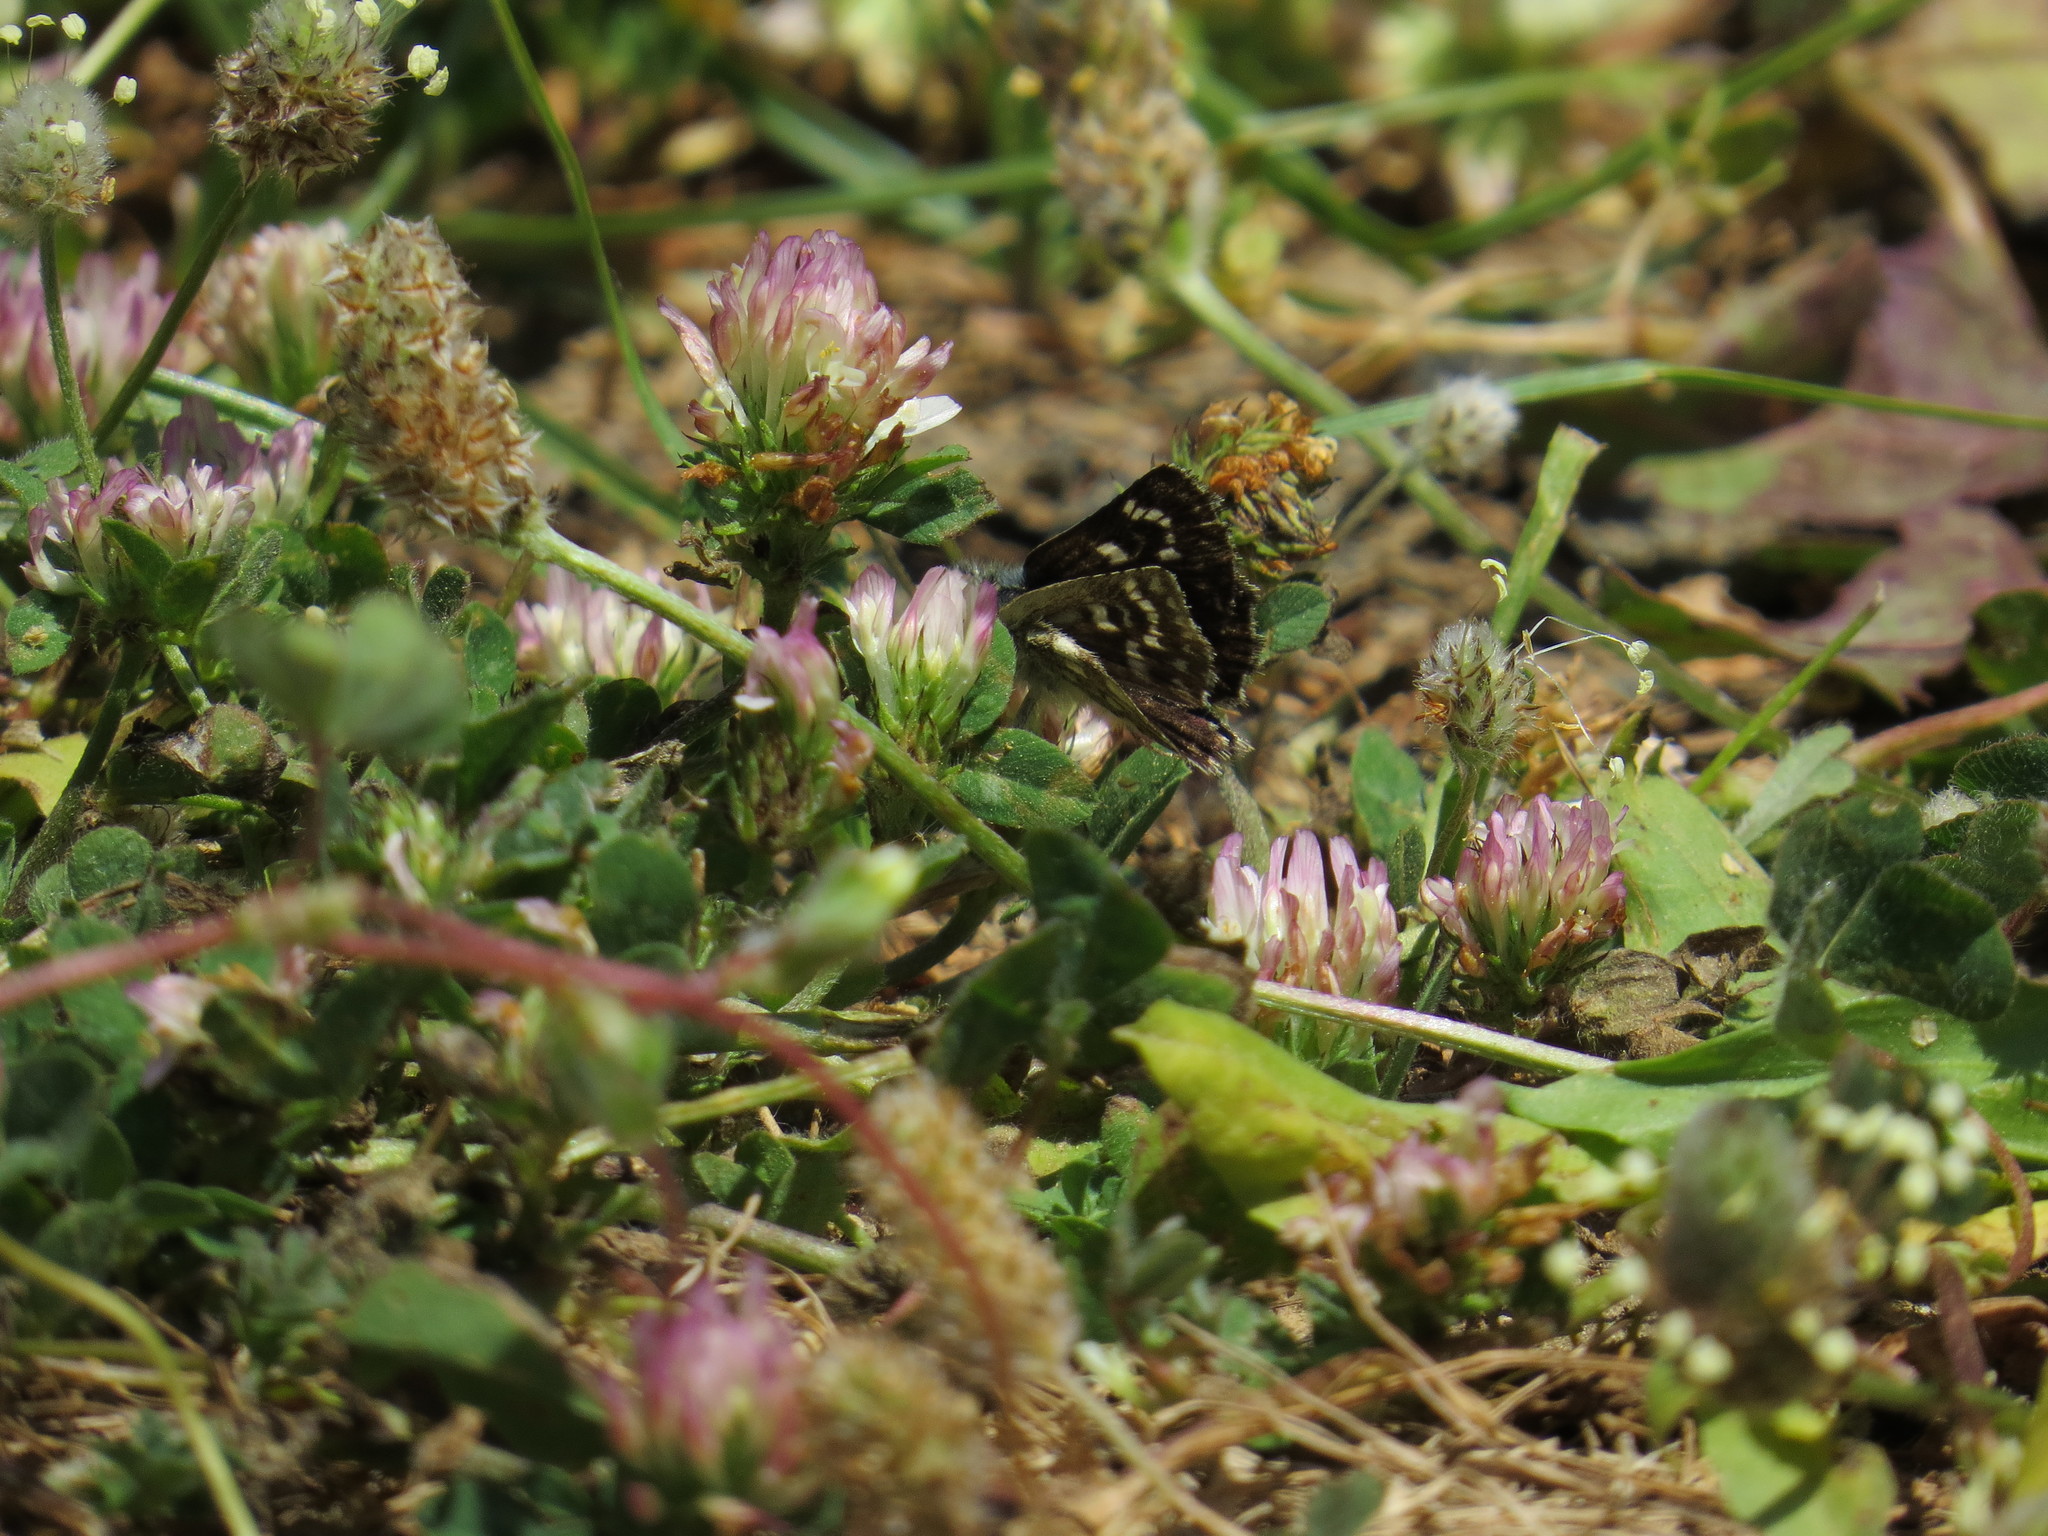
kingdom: Animalia
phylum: Arthropoda
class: Insecta
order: Lepidoptera
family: Hesperiidae
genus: Spialia
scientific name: Spialia sertorius
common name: Red underwing skipper
